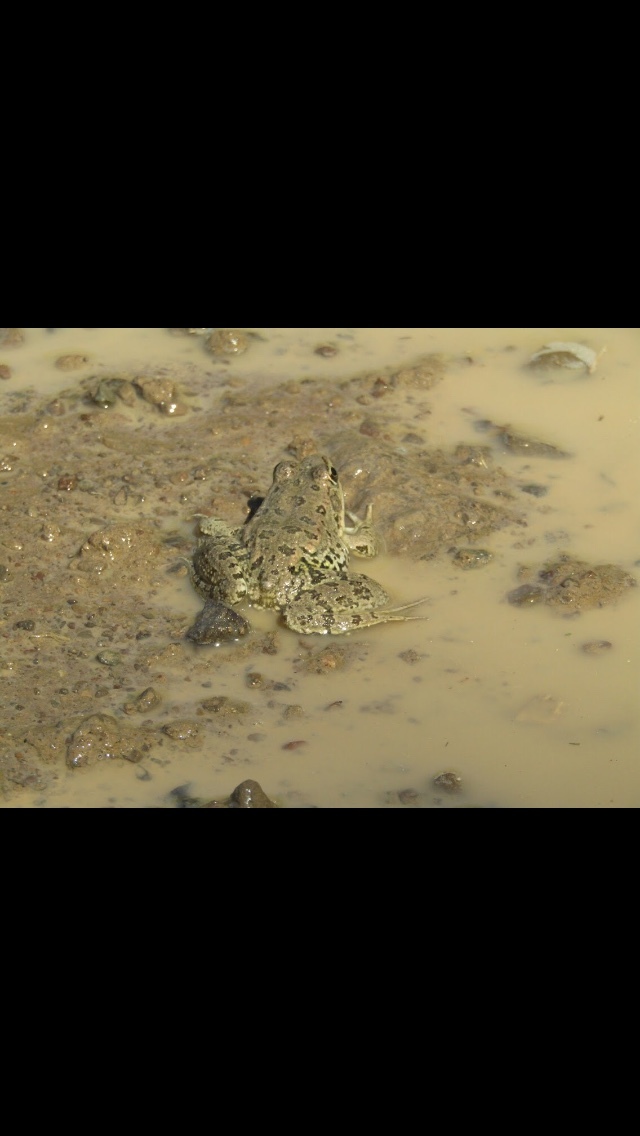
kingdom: Animalia
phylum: Chordata
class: Amphibia
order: Anura
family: Ranidae
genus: Pelophylax
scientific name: Pelophylax
